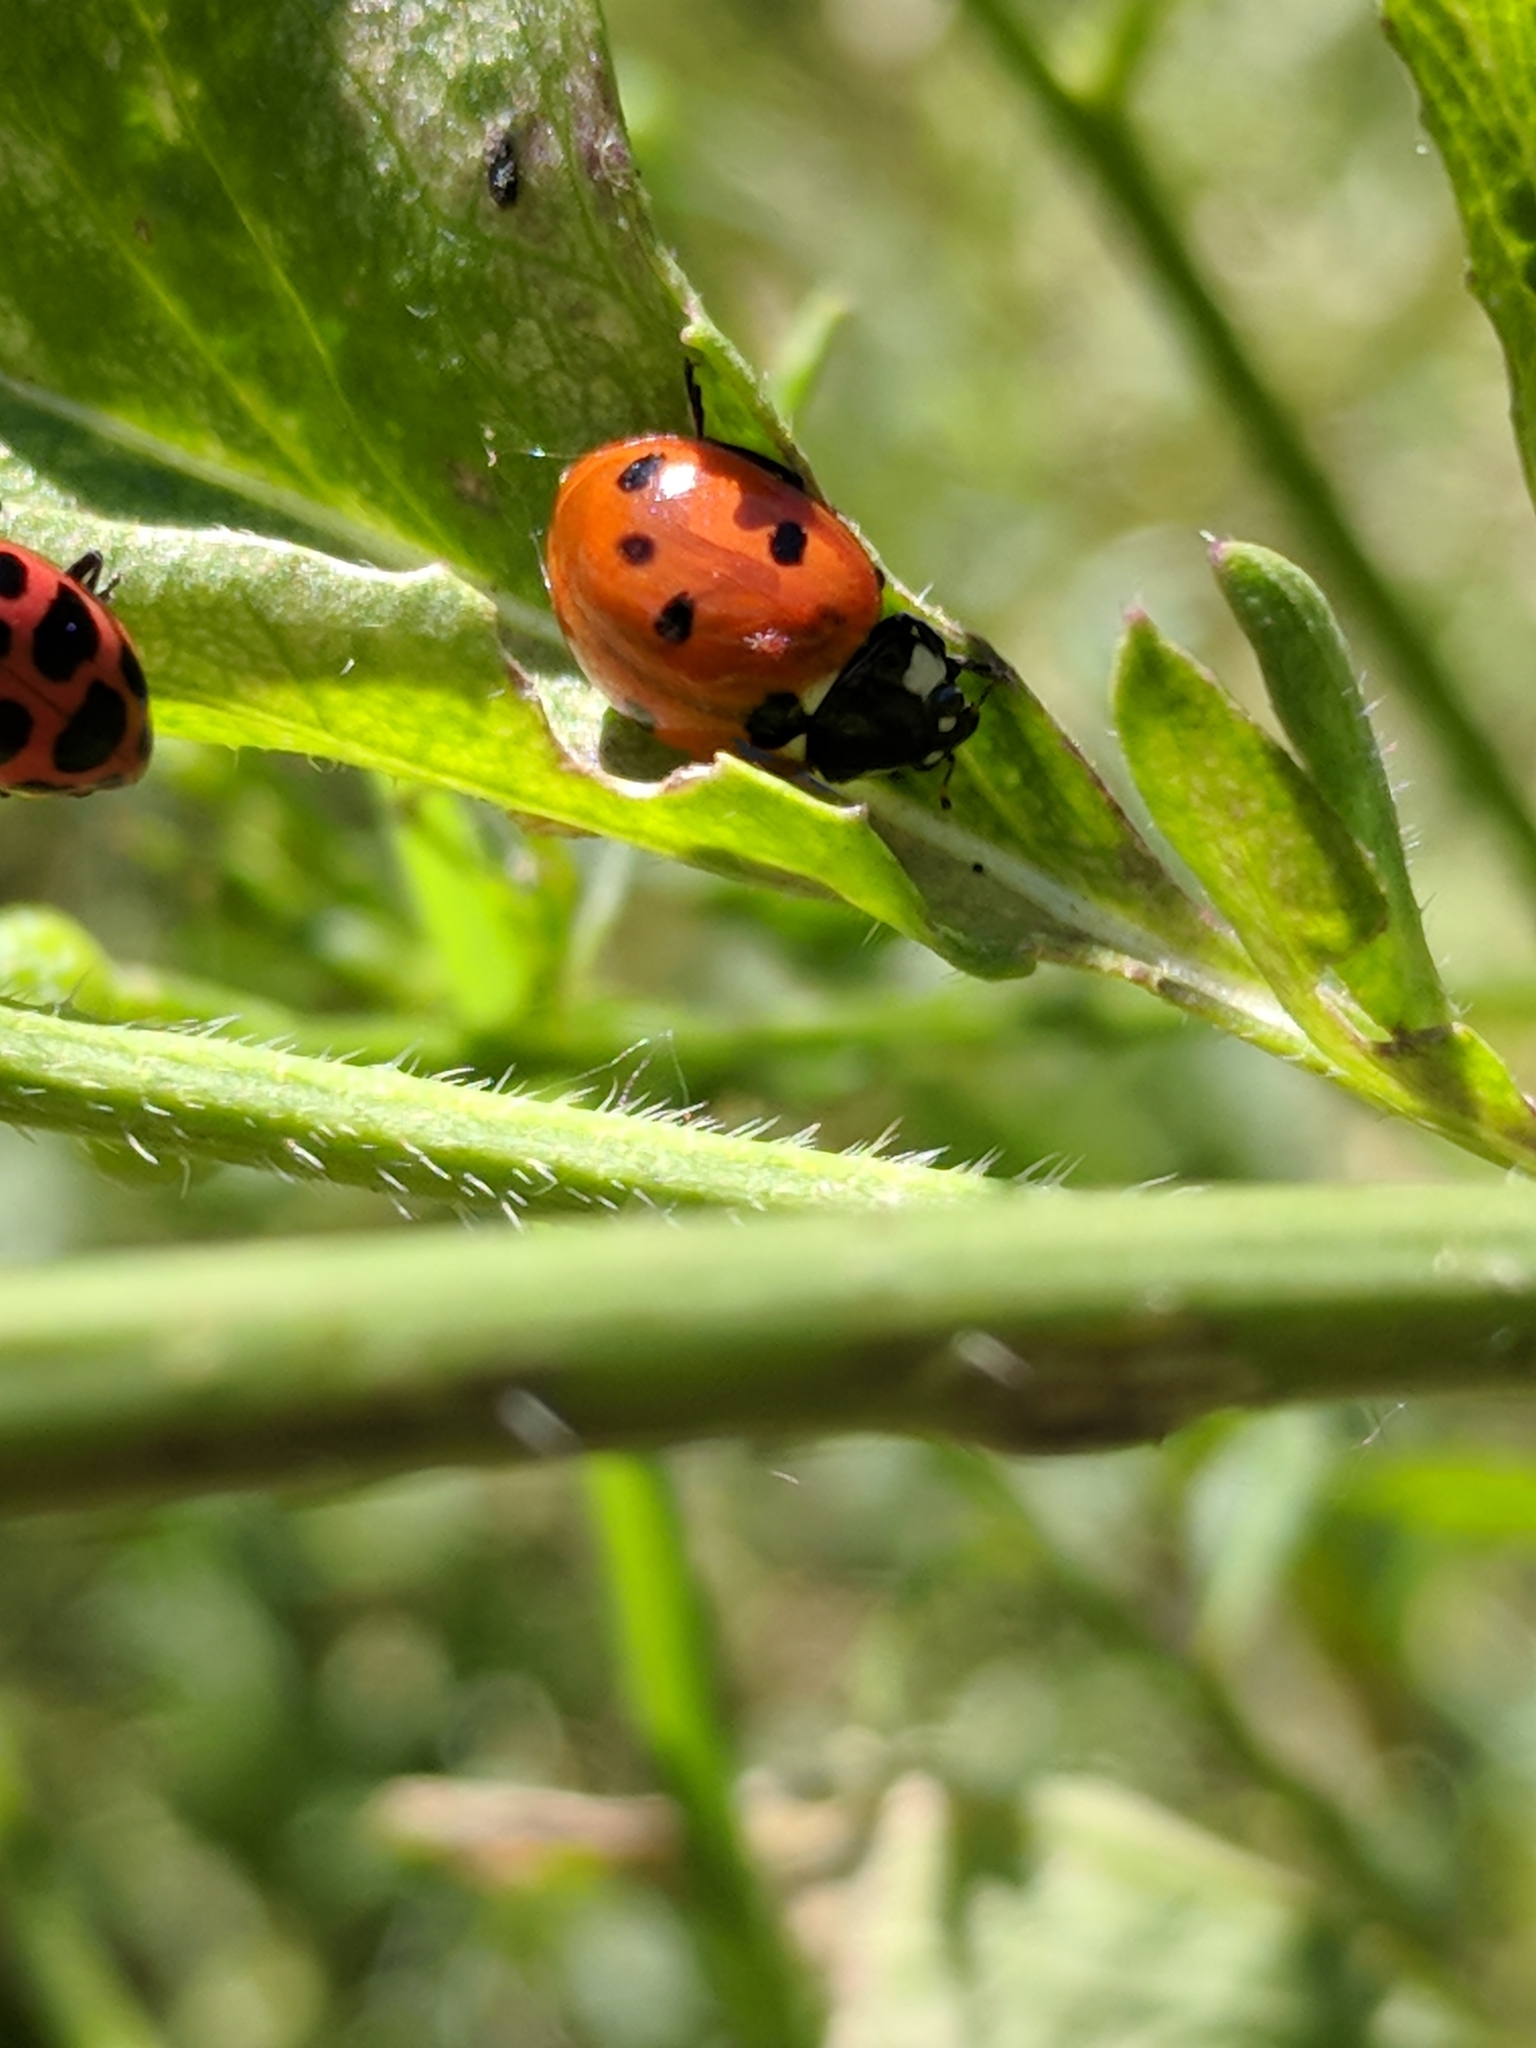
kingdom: Animalia
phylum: Arthropoda
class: Insecta
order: Coleoptera
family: Coccinellidae
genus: Coccinella
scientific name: Coccinella septempunctata
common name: Sevenspotted lady beetle
